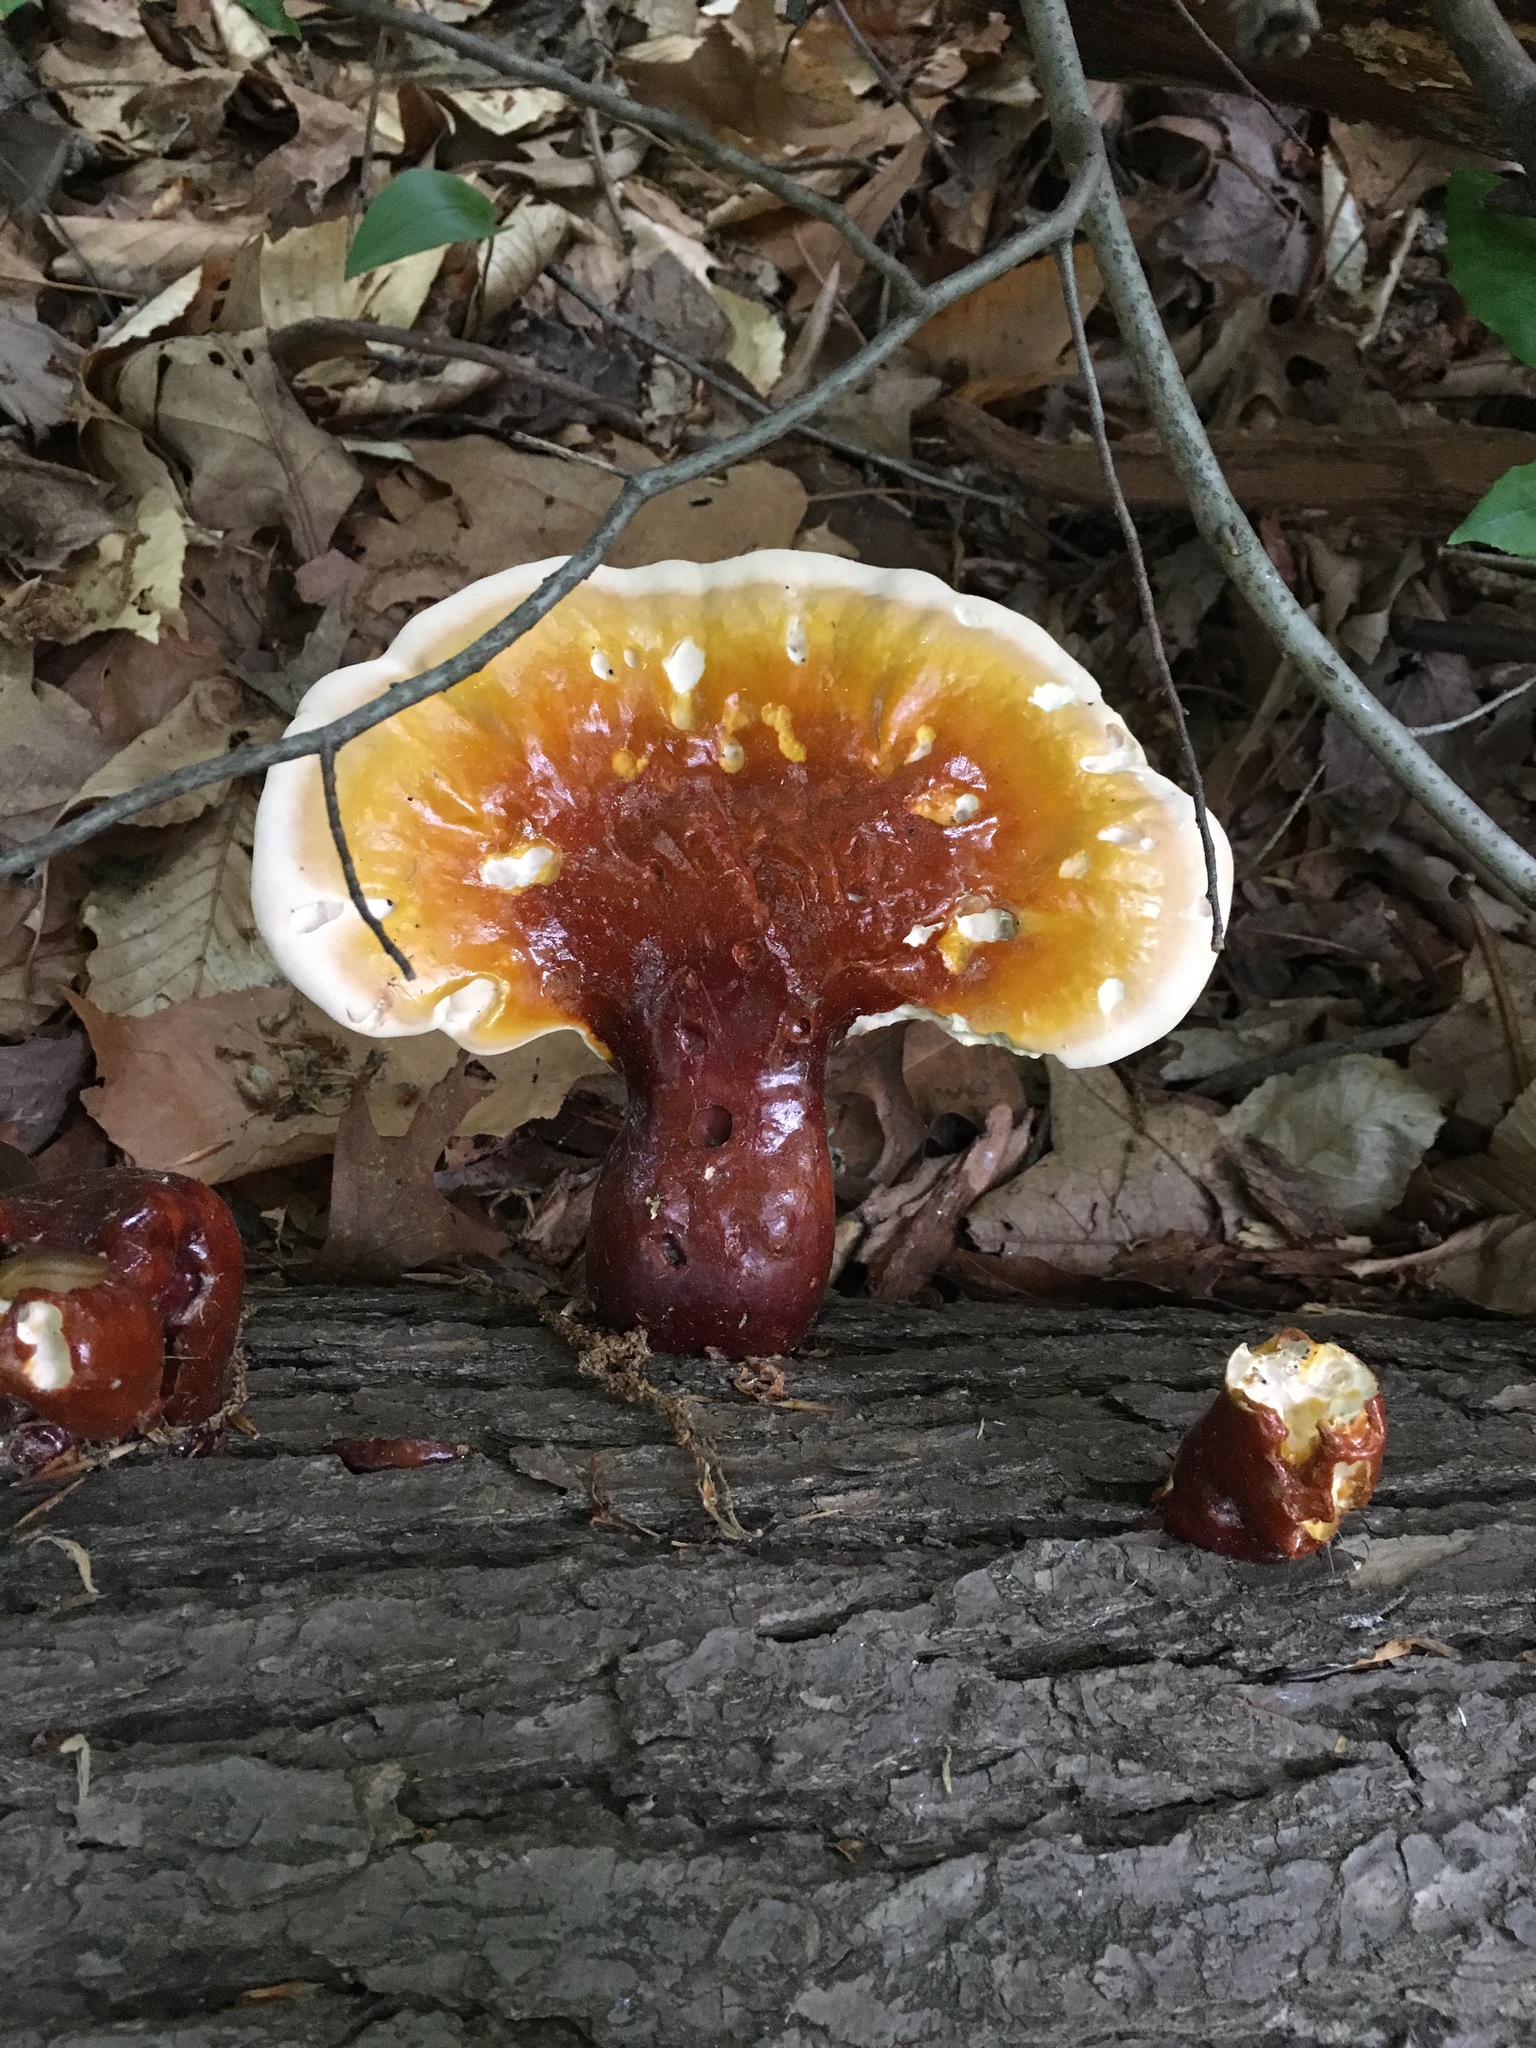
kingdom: Fungi
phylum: Basidiomycota
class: Agaricomycetes
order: Polyporales
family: Polyporaceae
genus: Ganoderma
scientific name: Ganoderma tsugae
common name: Hemlock varnish shelf
